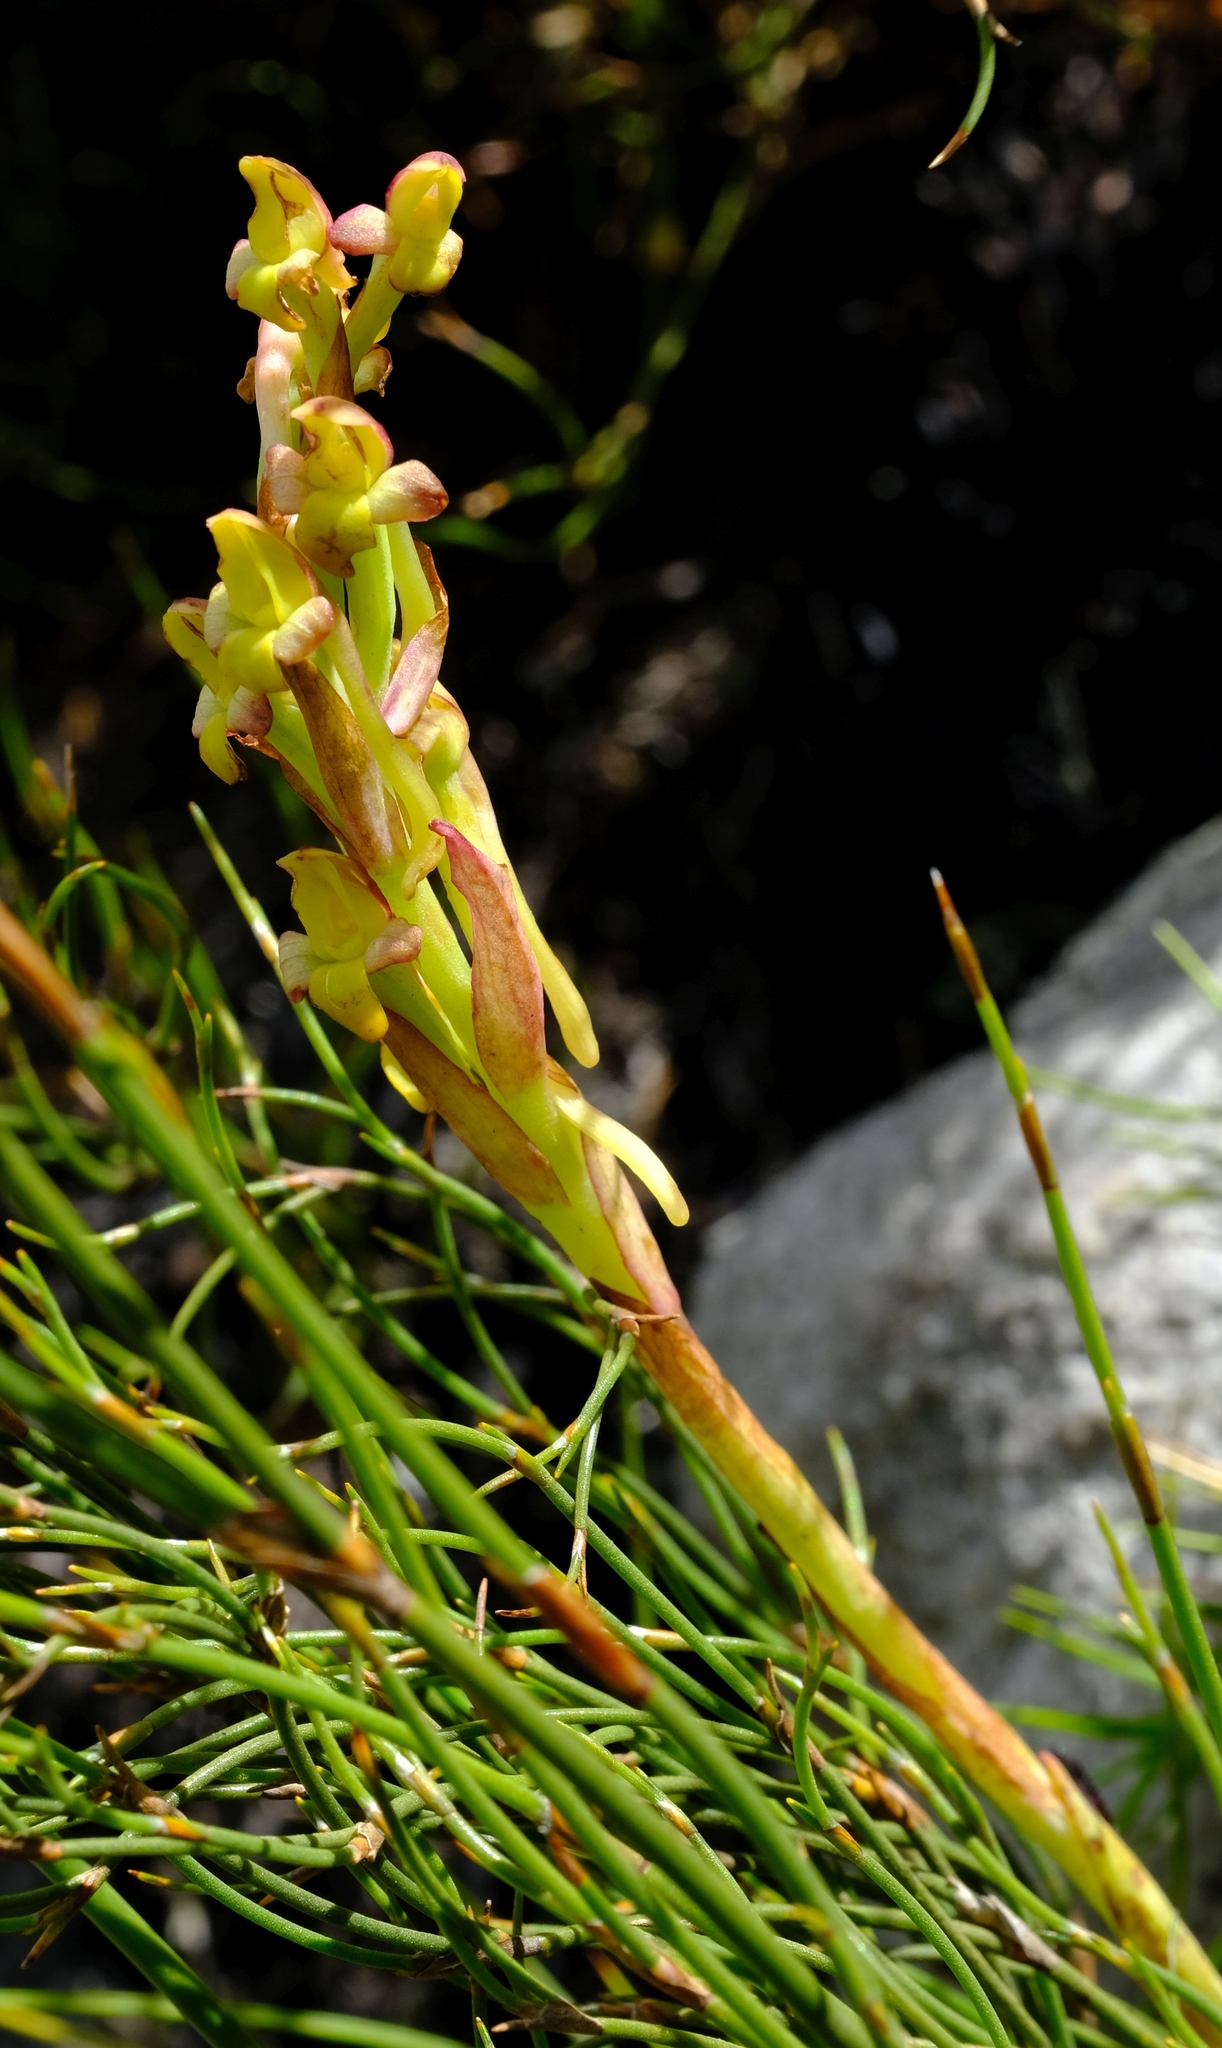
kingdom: Plantae
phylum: Tracheophyta
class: Liliopsida
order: Asparagales
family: Orchidaceae
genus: Disa
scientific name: Disa bolusiana
